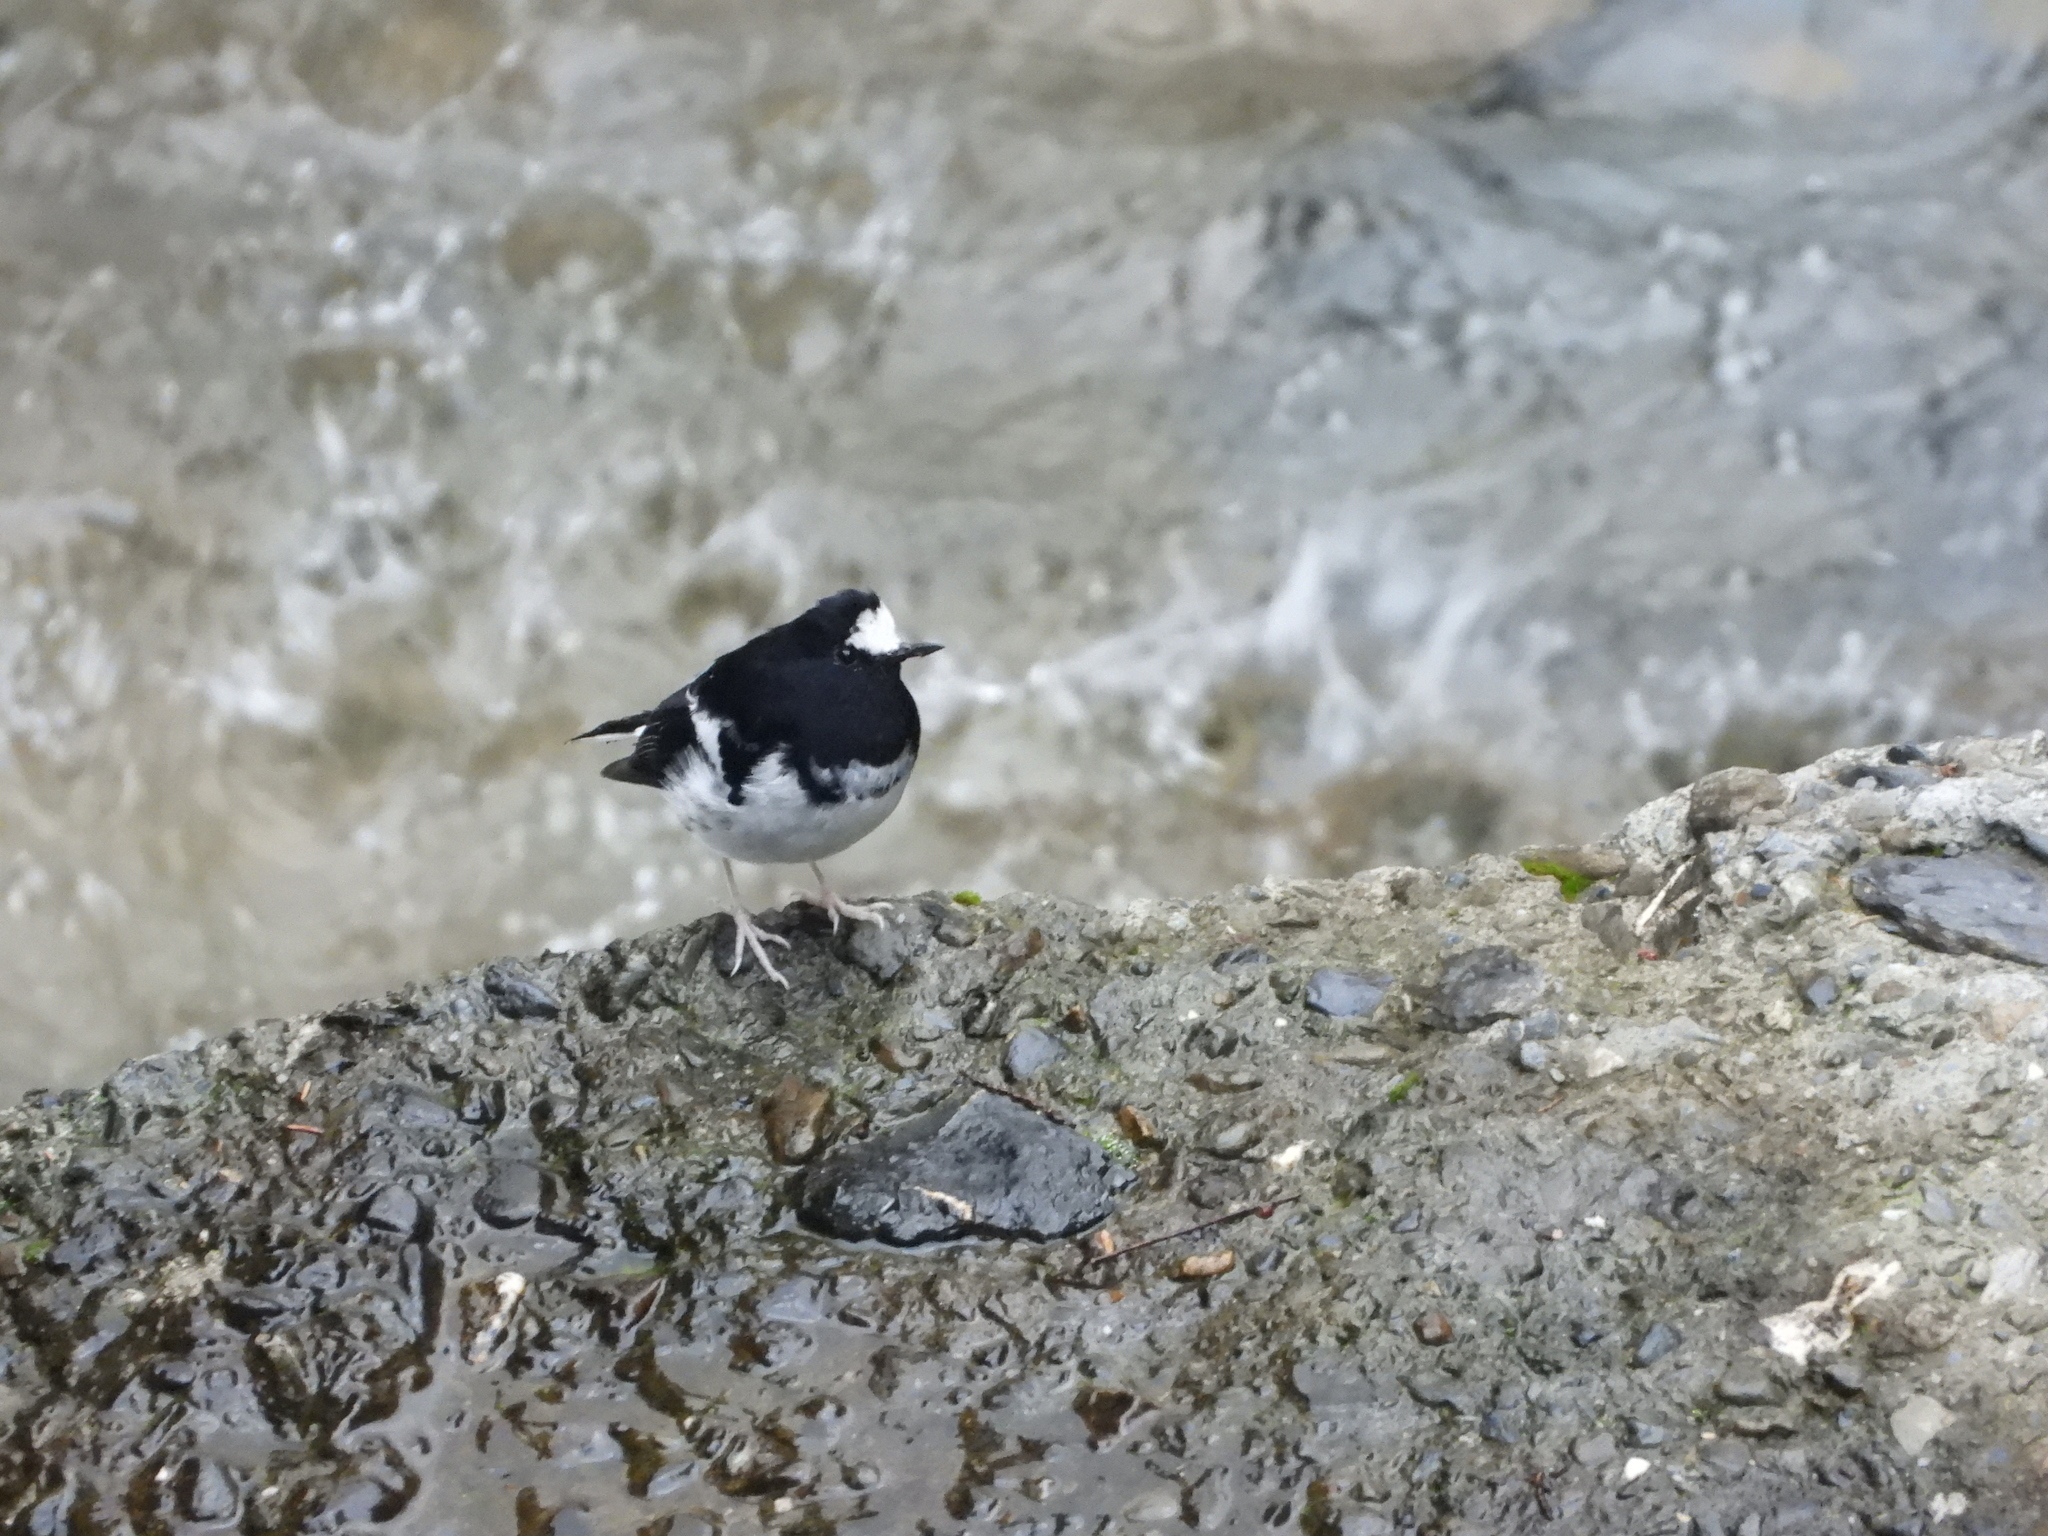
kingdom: Animalia
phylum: Chordata
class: Aves
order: Passeriformes
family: Muscicapidae
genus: Enicurus
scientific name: Enicurus scouleri
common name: Little forktail
